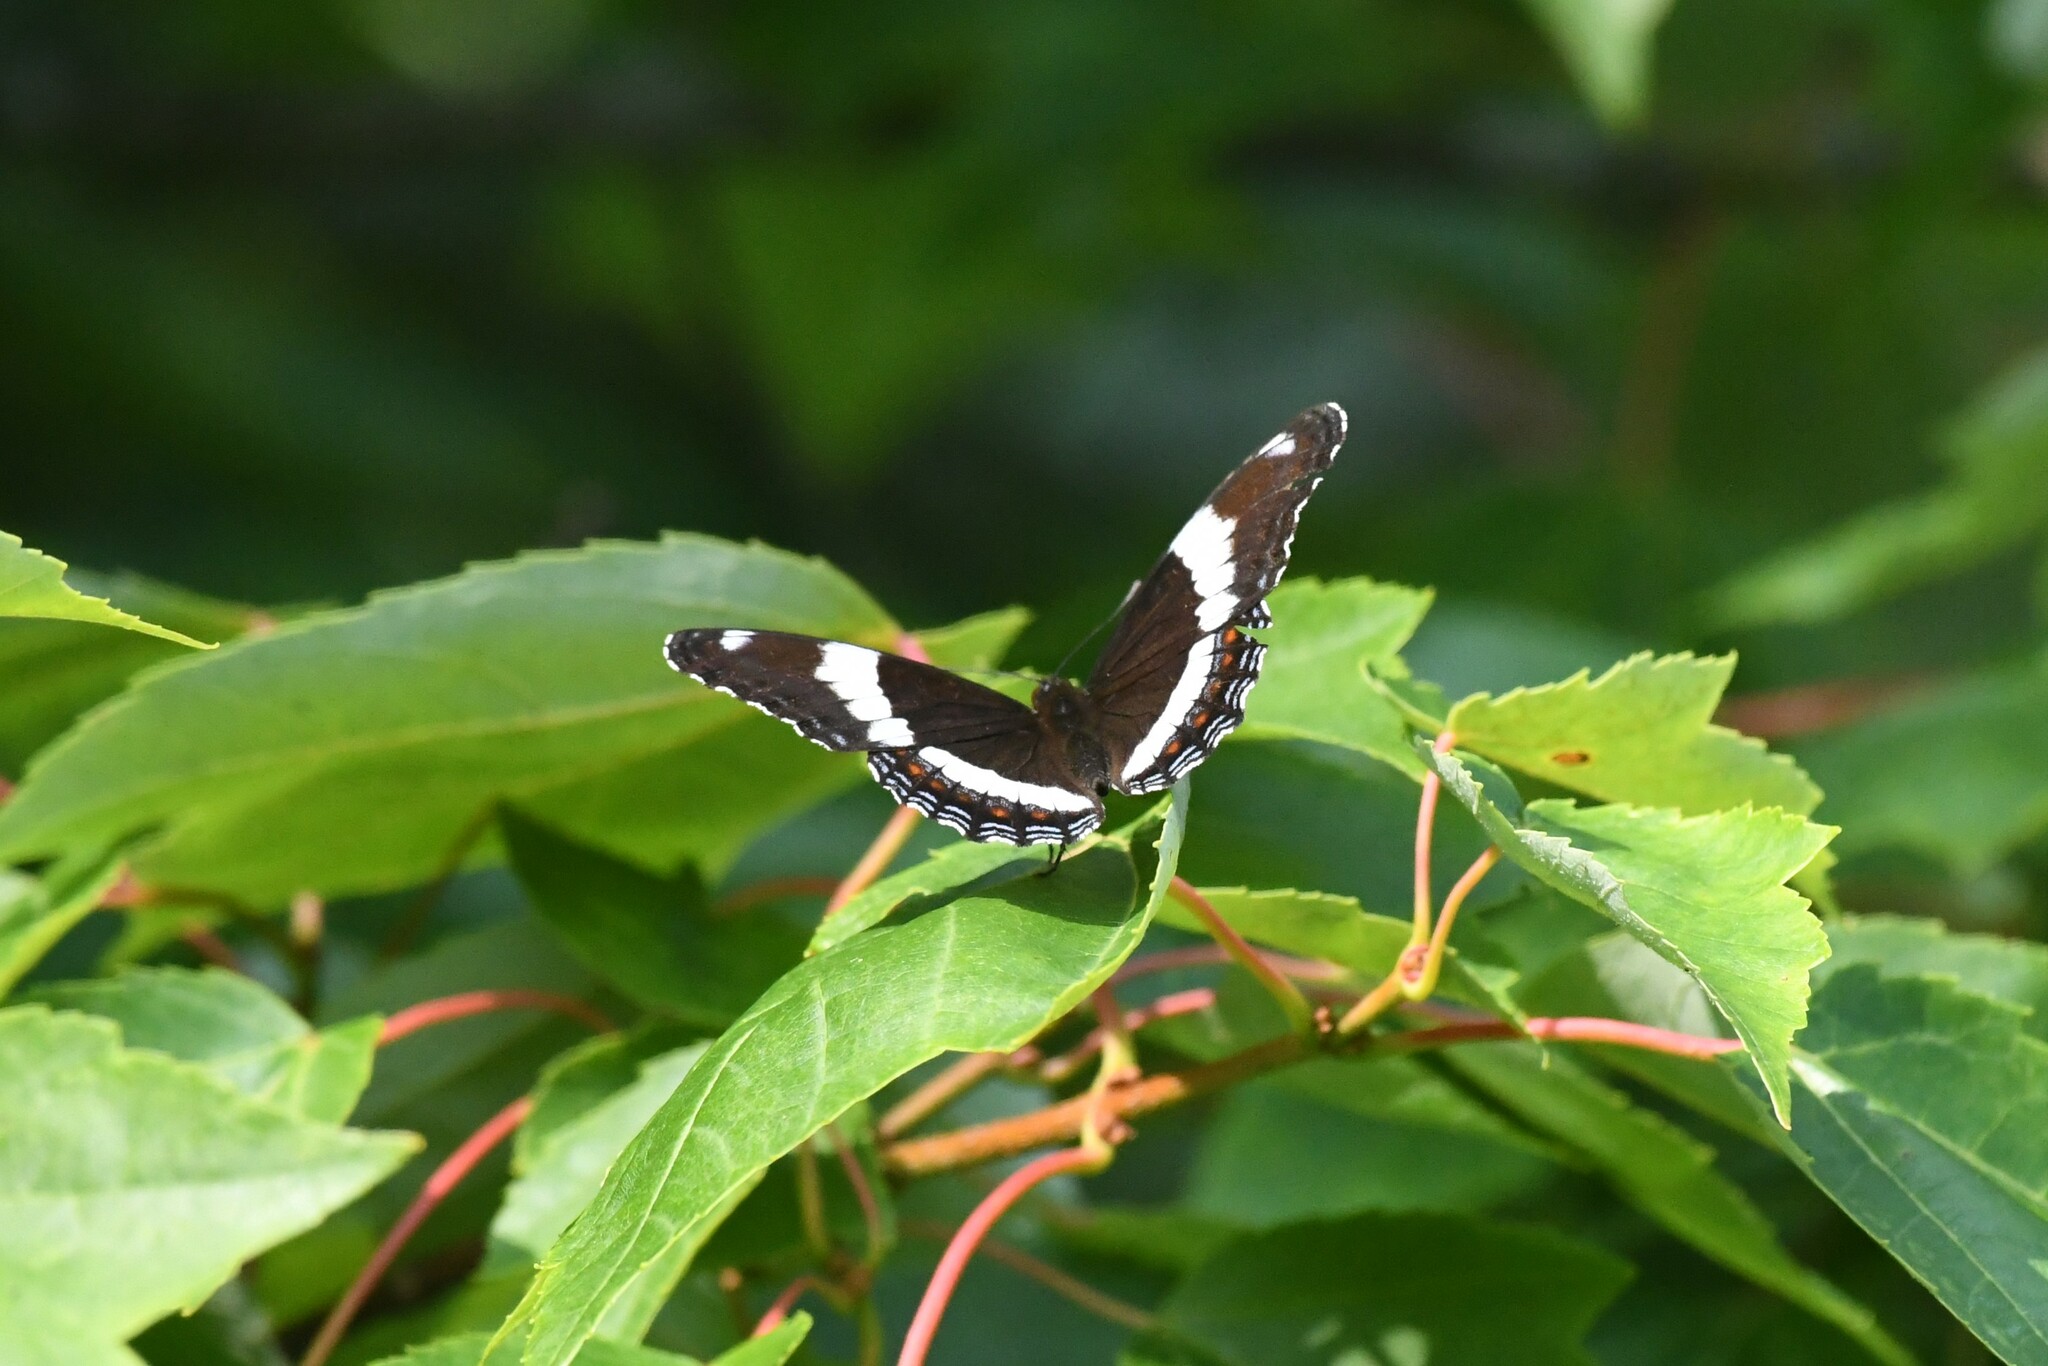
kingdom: Animalia
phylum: Arthropoda
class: Insecta
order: Lepidoptera
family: Nymphalidae
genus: Limenitis
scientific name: Limenitis arthemis
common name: Red-spotted admiral
